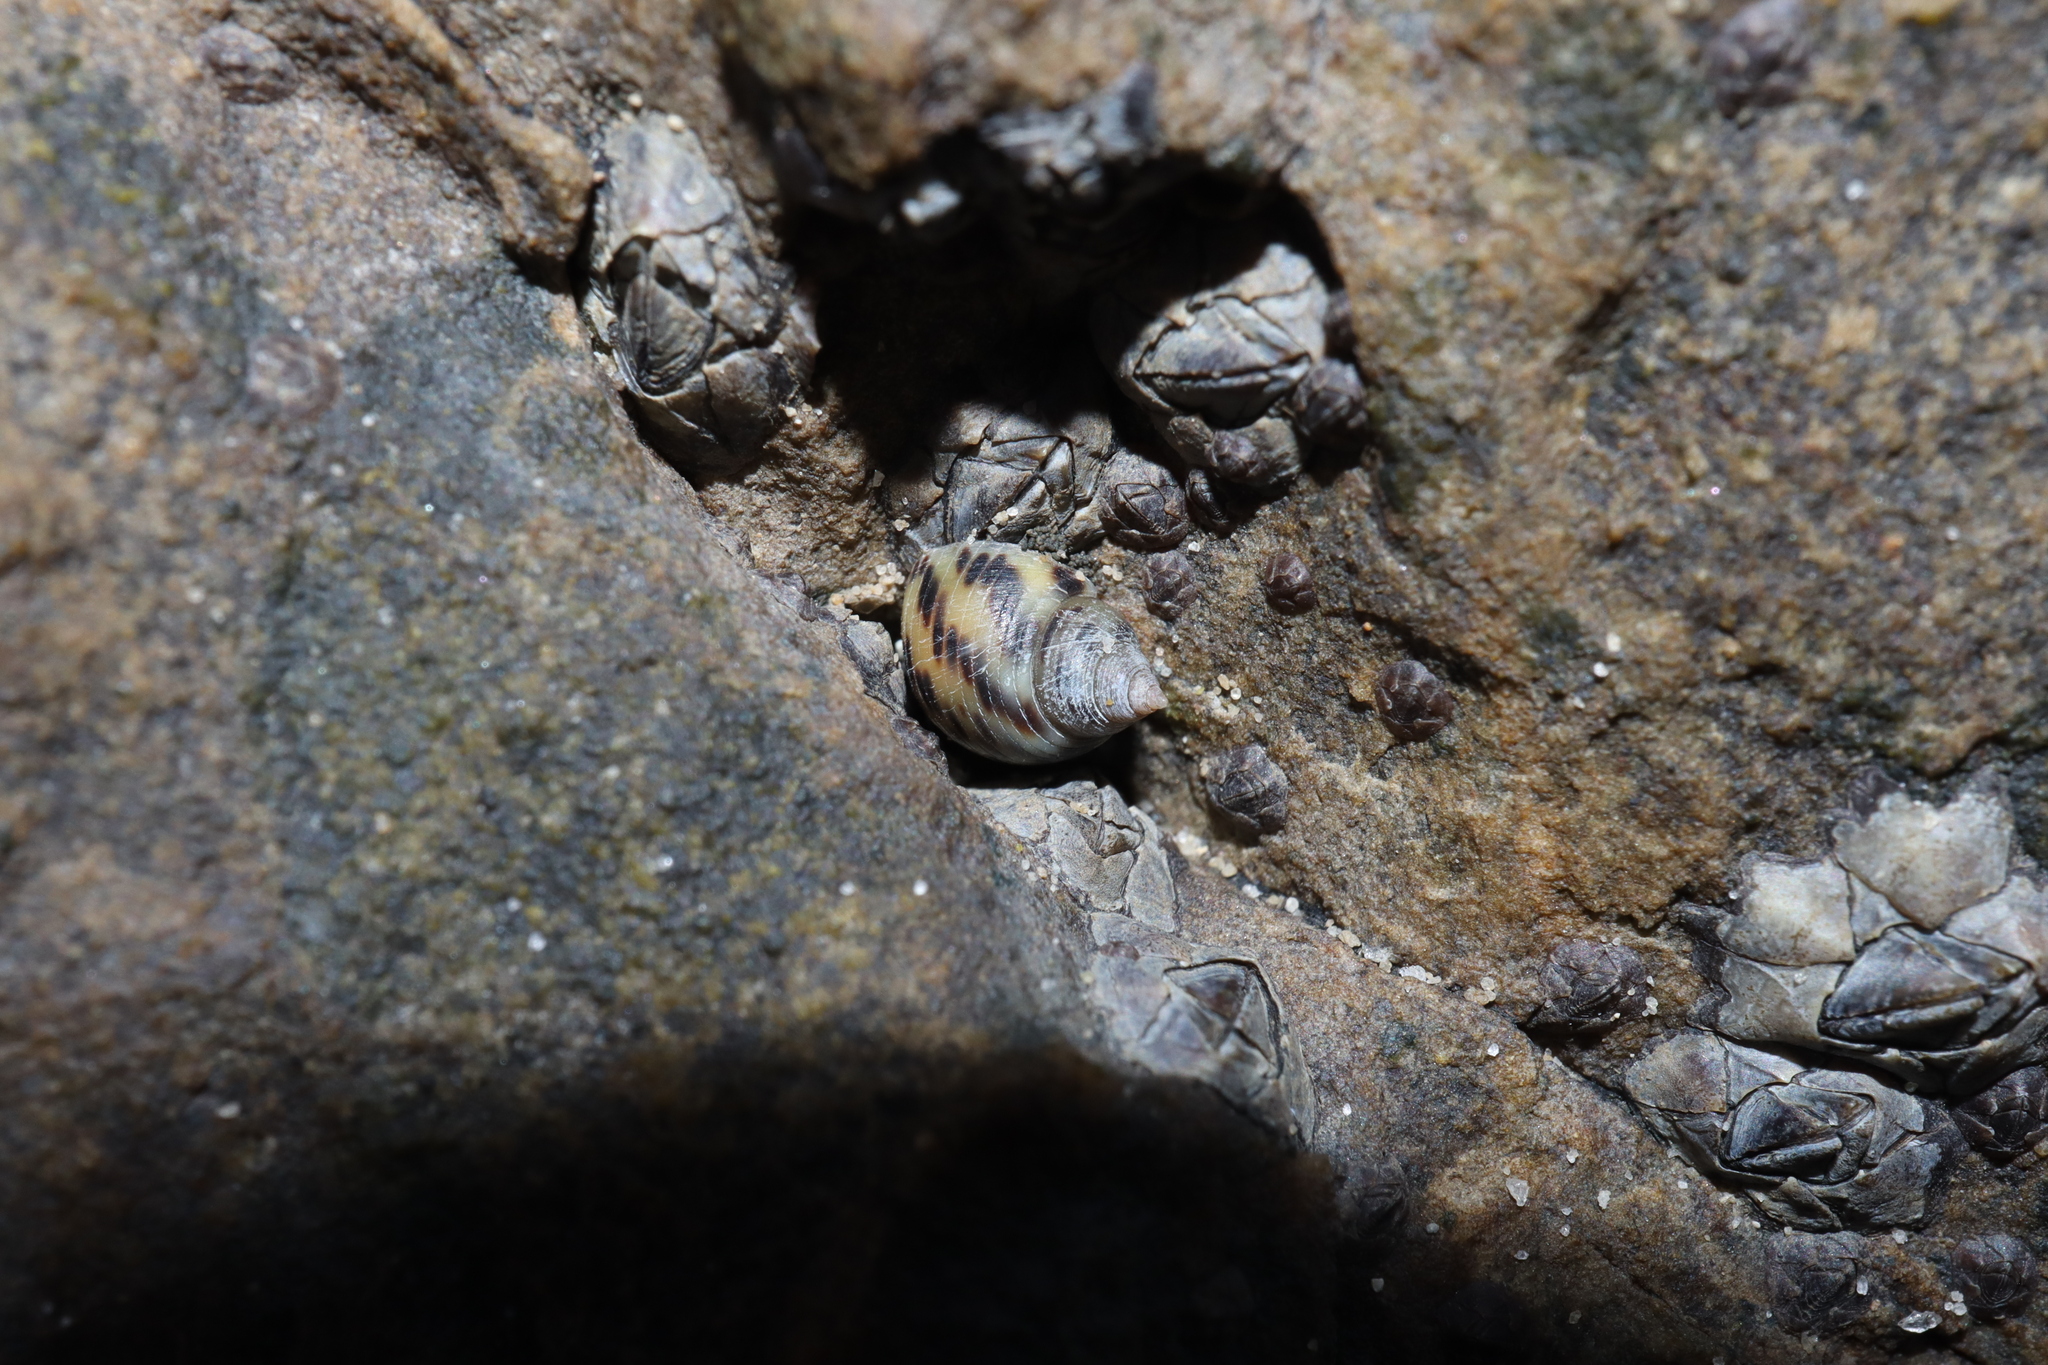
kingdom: Animalia
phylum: Mollusca
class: Gastropoda
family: Planaxidae
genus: Planaxis
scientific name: Planaxis sulcatus
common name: Furrowed planaxis
